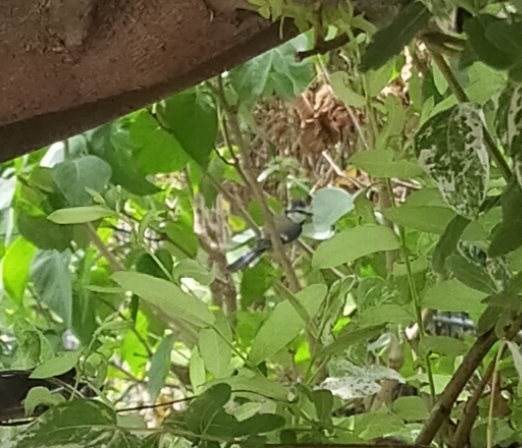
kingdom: Animalia
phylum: Chordata
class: Aves
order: Passeriformes
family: Paridae
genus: Cyanistes
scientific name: Cyanistes caeruleus
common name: Eurasian blue tit
